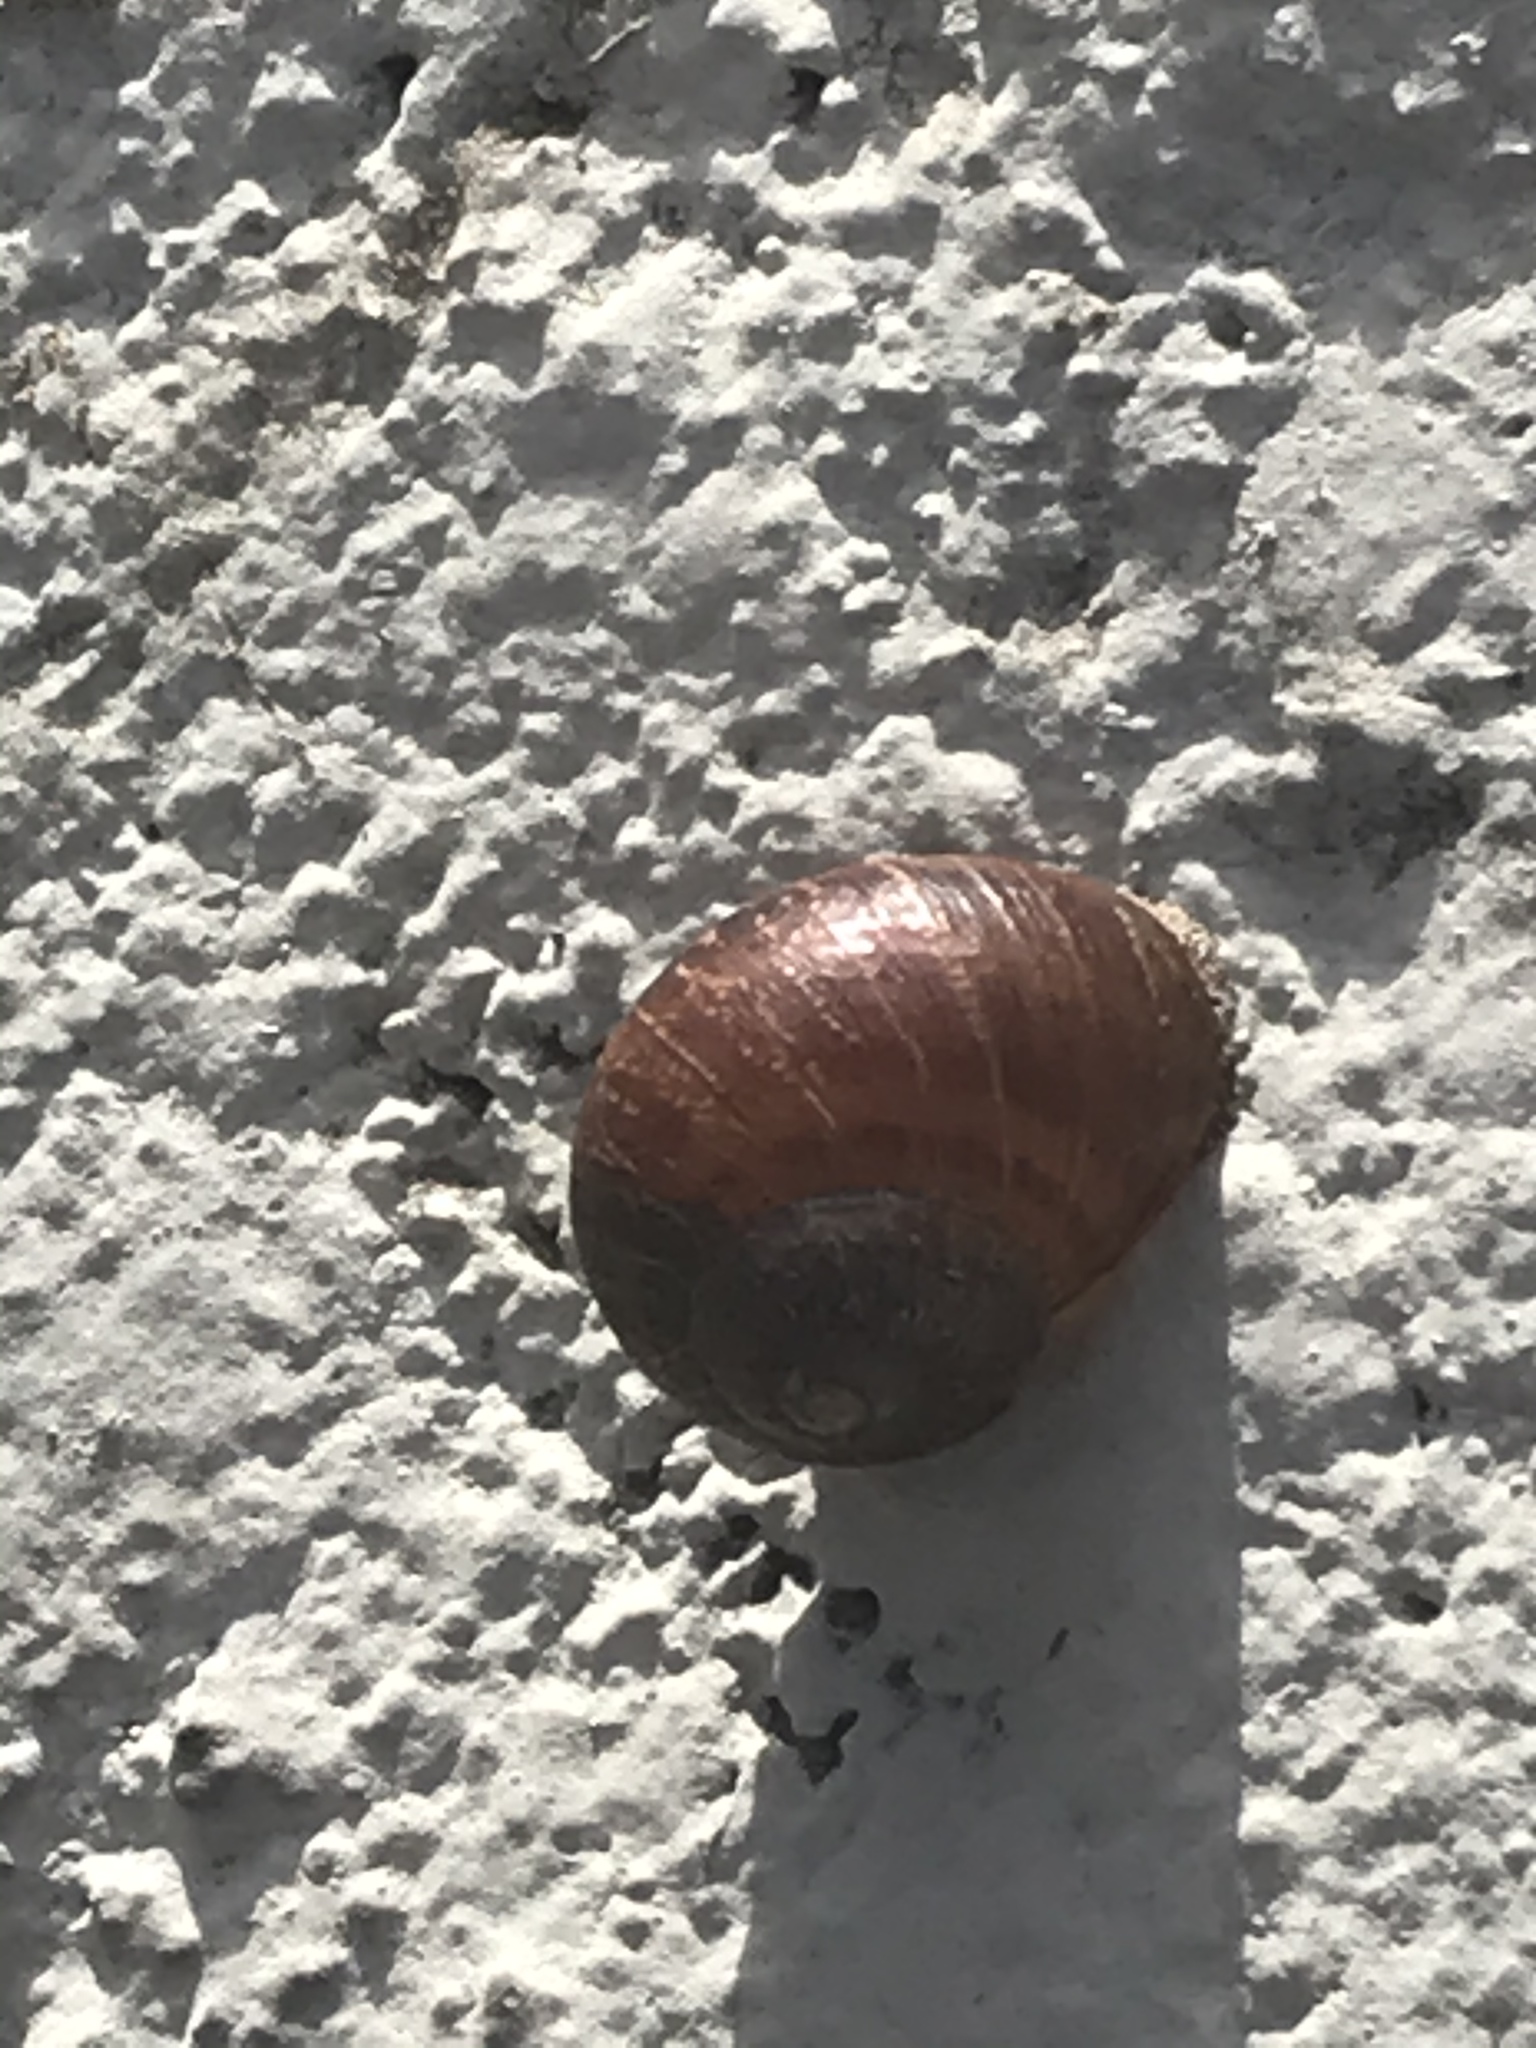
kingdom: Animalia
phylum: Mollusca
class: Gastropoda
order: Stylommatophora
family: Helicidae
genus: Cornu
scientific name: Cornu aspersum
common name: Brown garden snail
